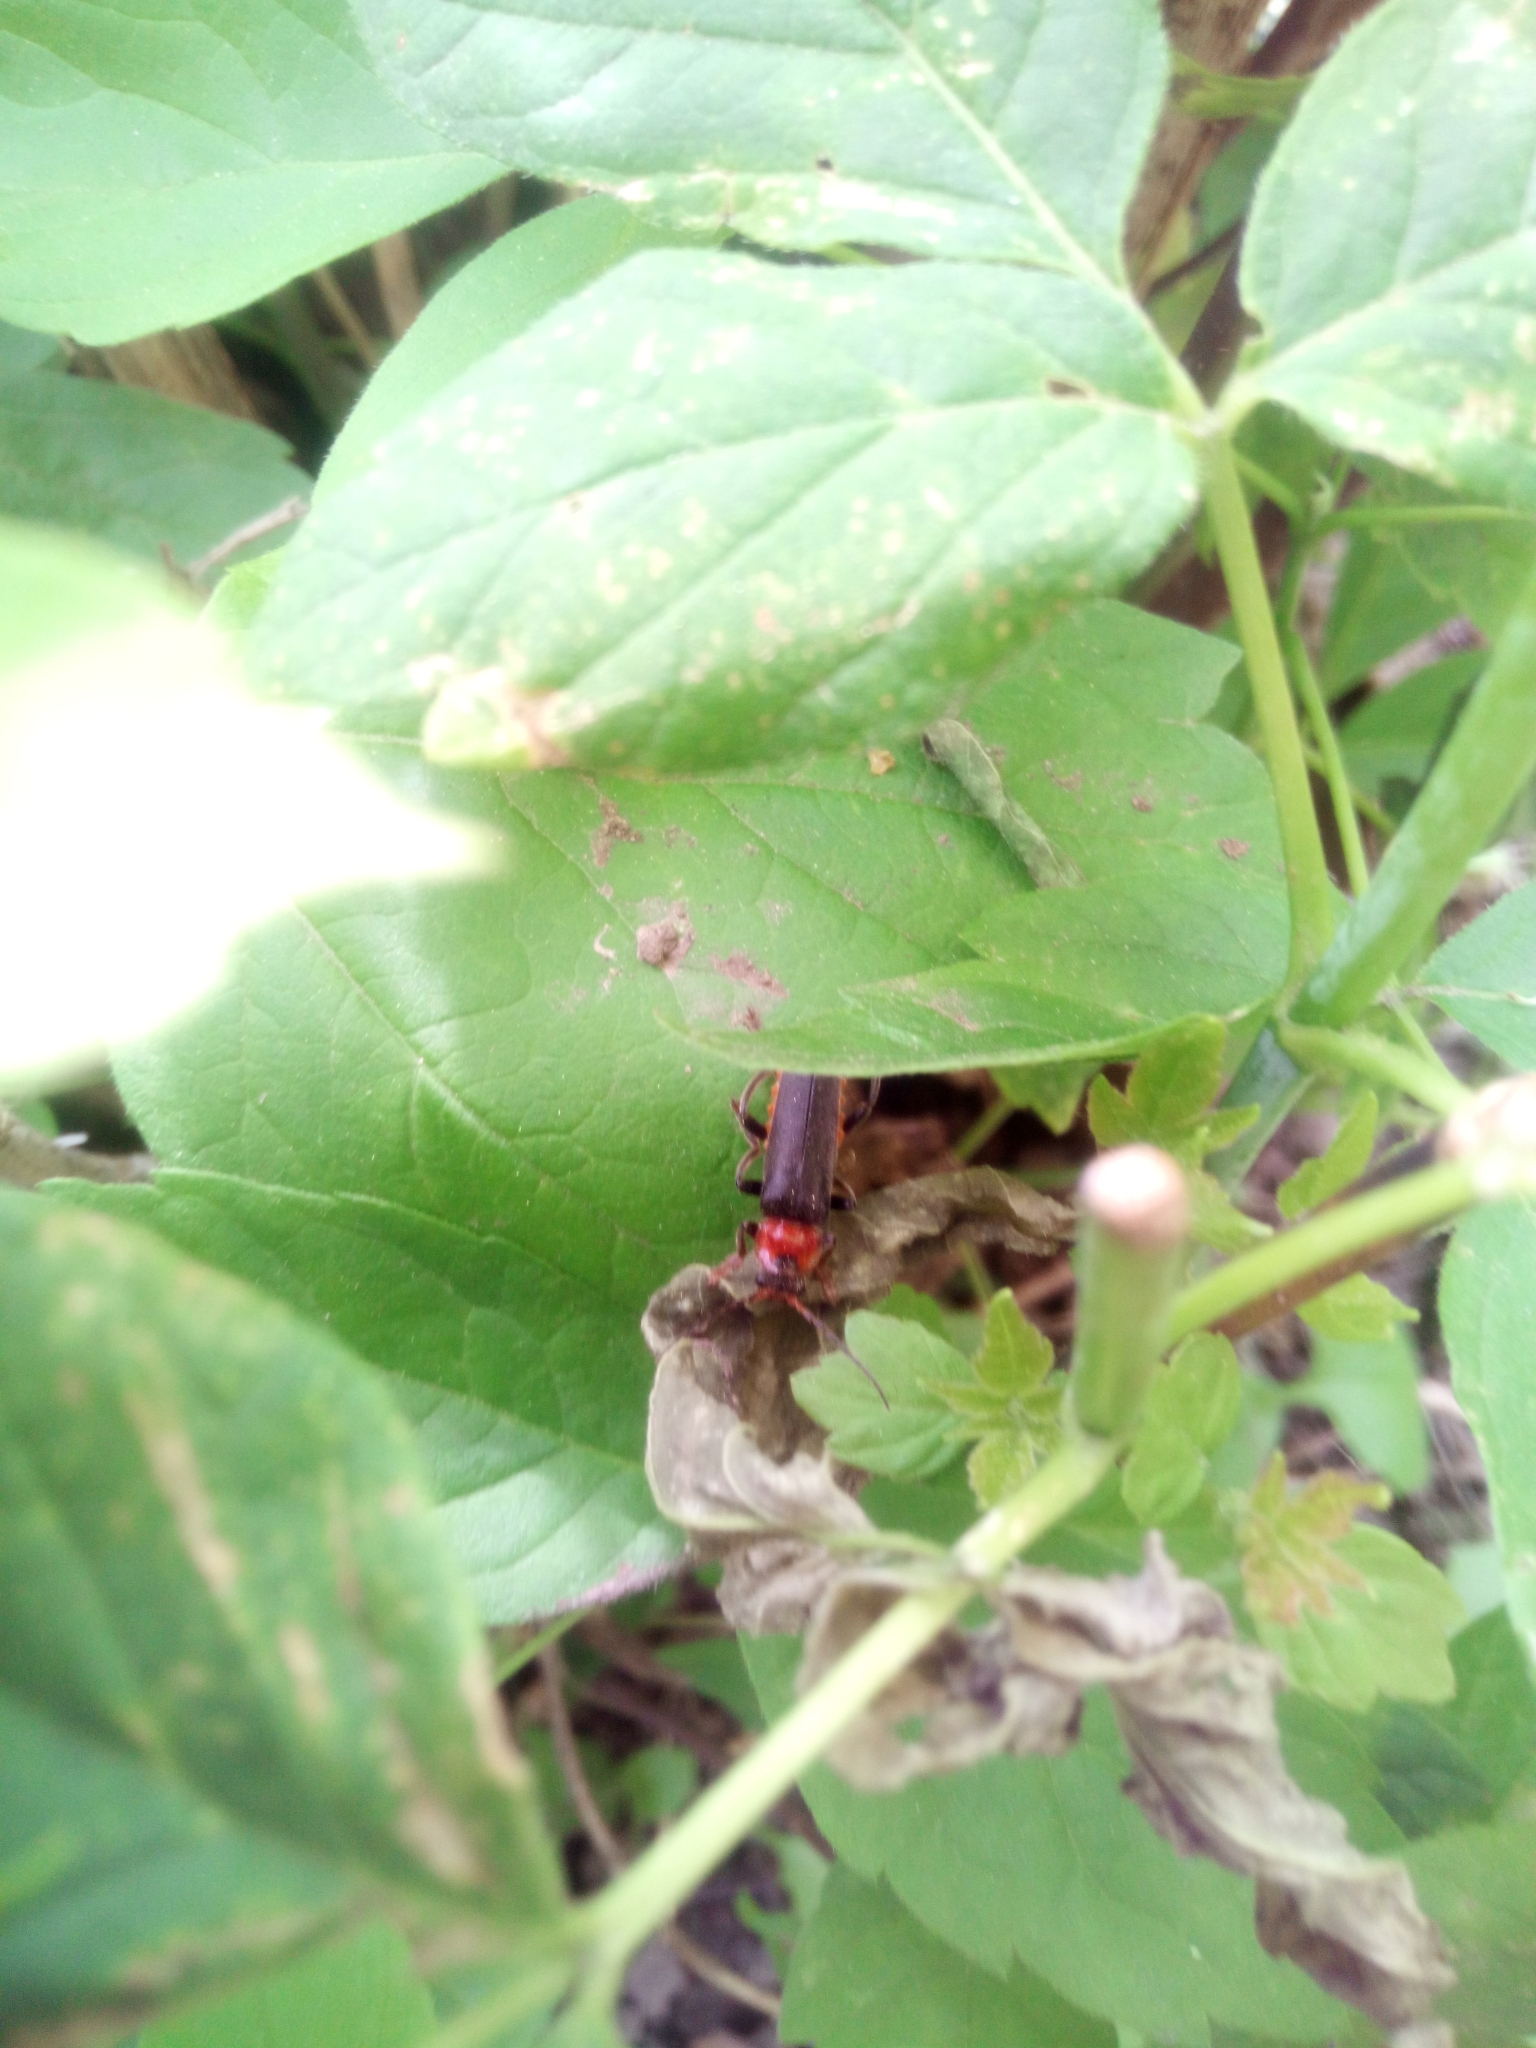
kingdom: Animalia
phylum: Arthropoda
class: Insecta
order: Coleoptera
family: Cantharidae
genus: Cantharis
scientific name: Cantharis fusca
